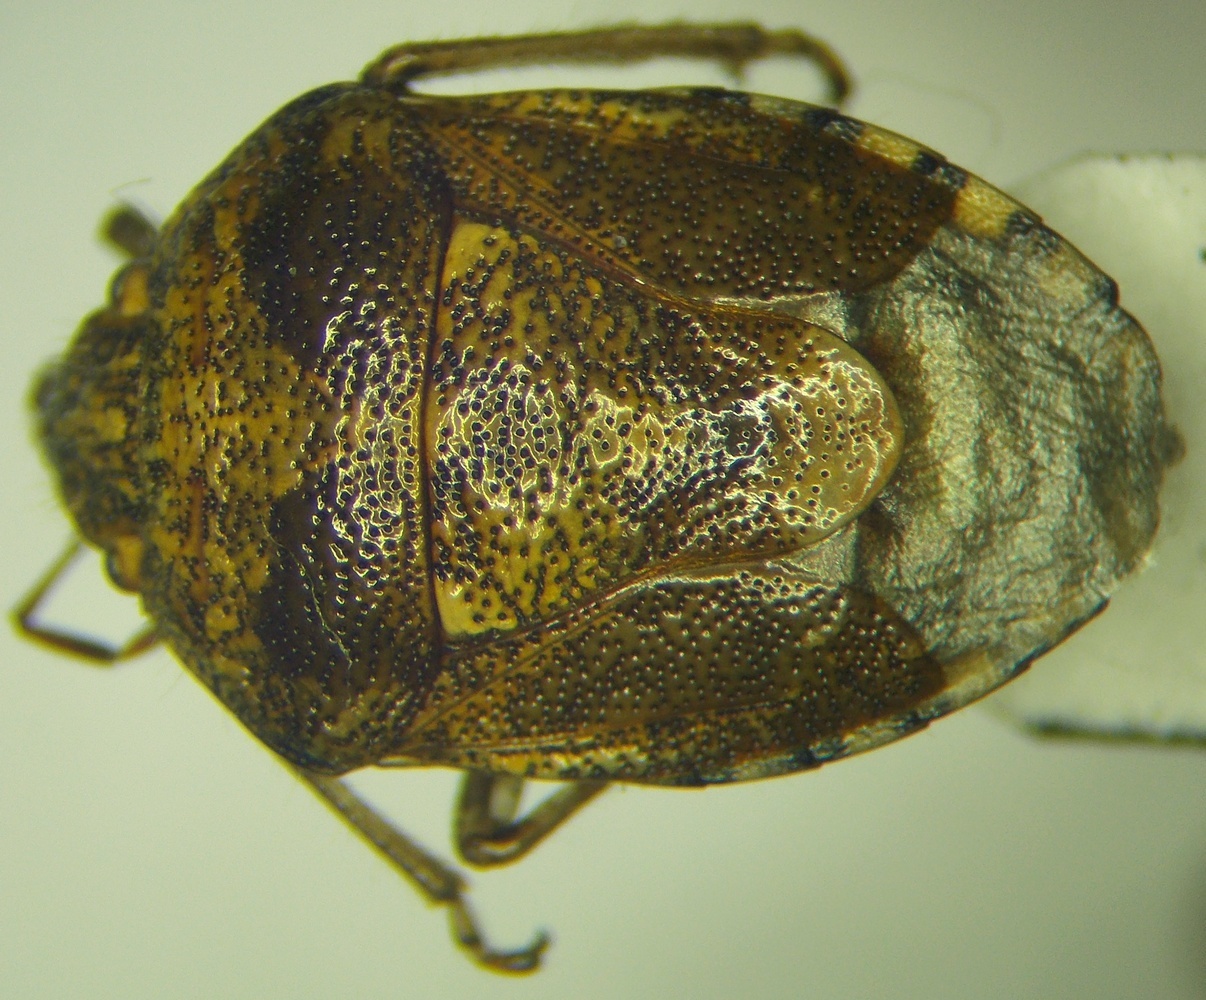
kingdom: Animalia
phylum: Arthropoda
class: Insecta
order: Hemiptera
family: Pentatomidae
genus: Staria
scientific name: Staria lunata
